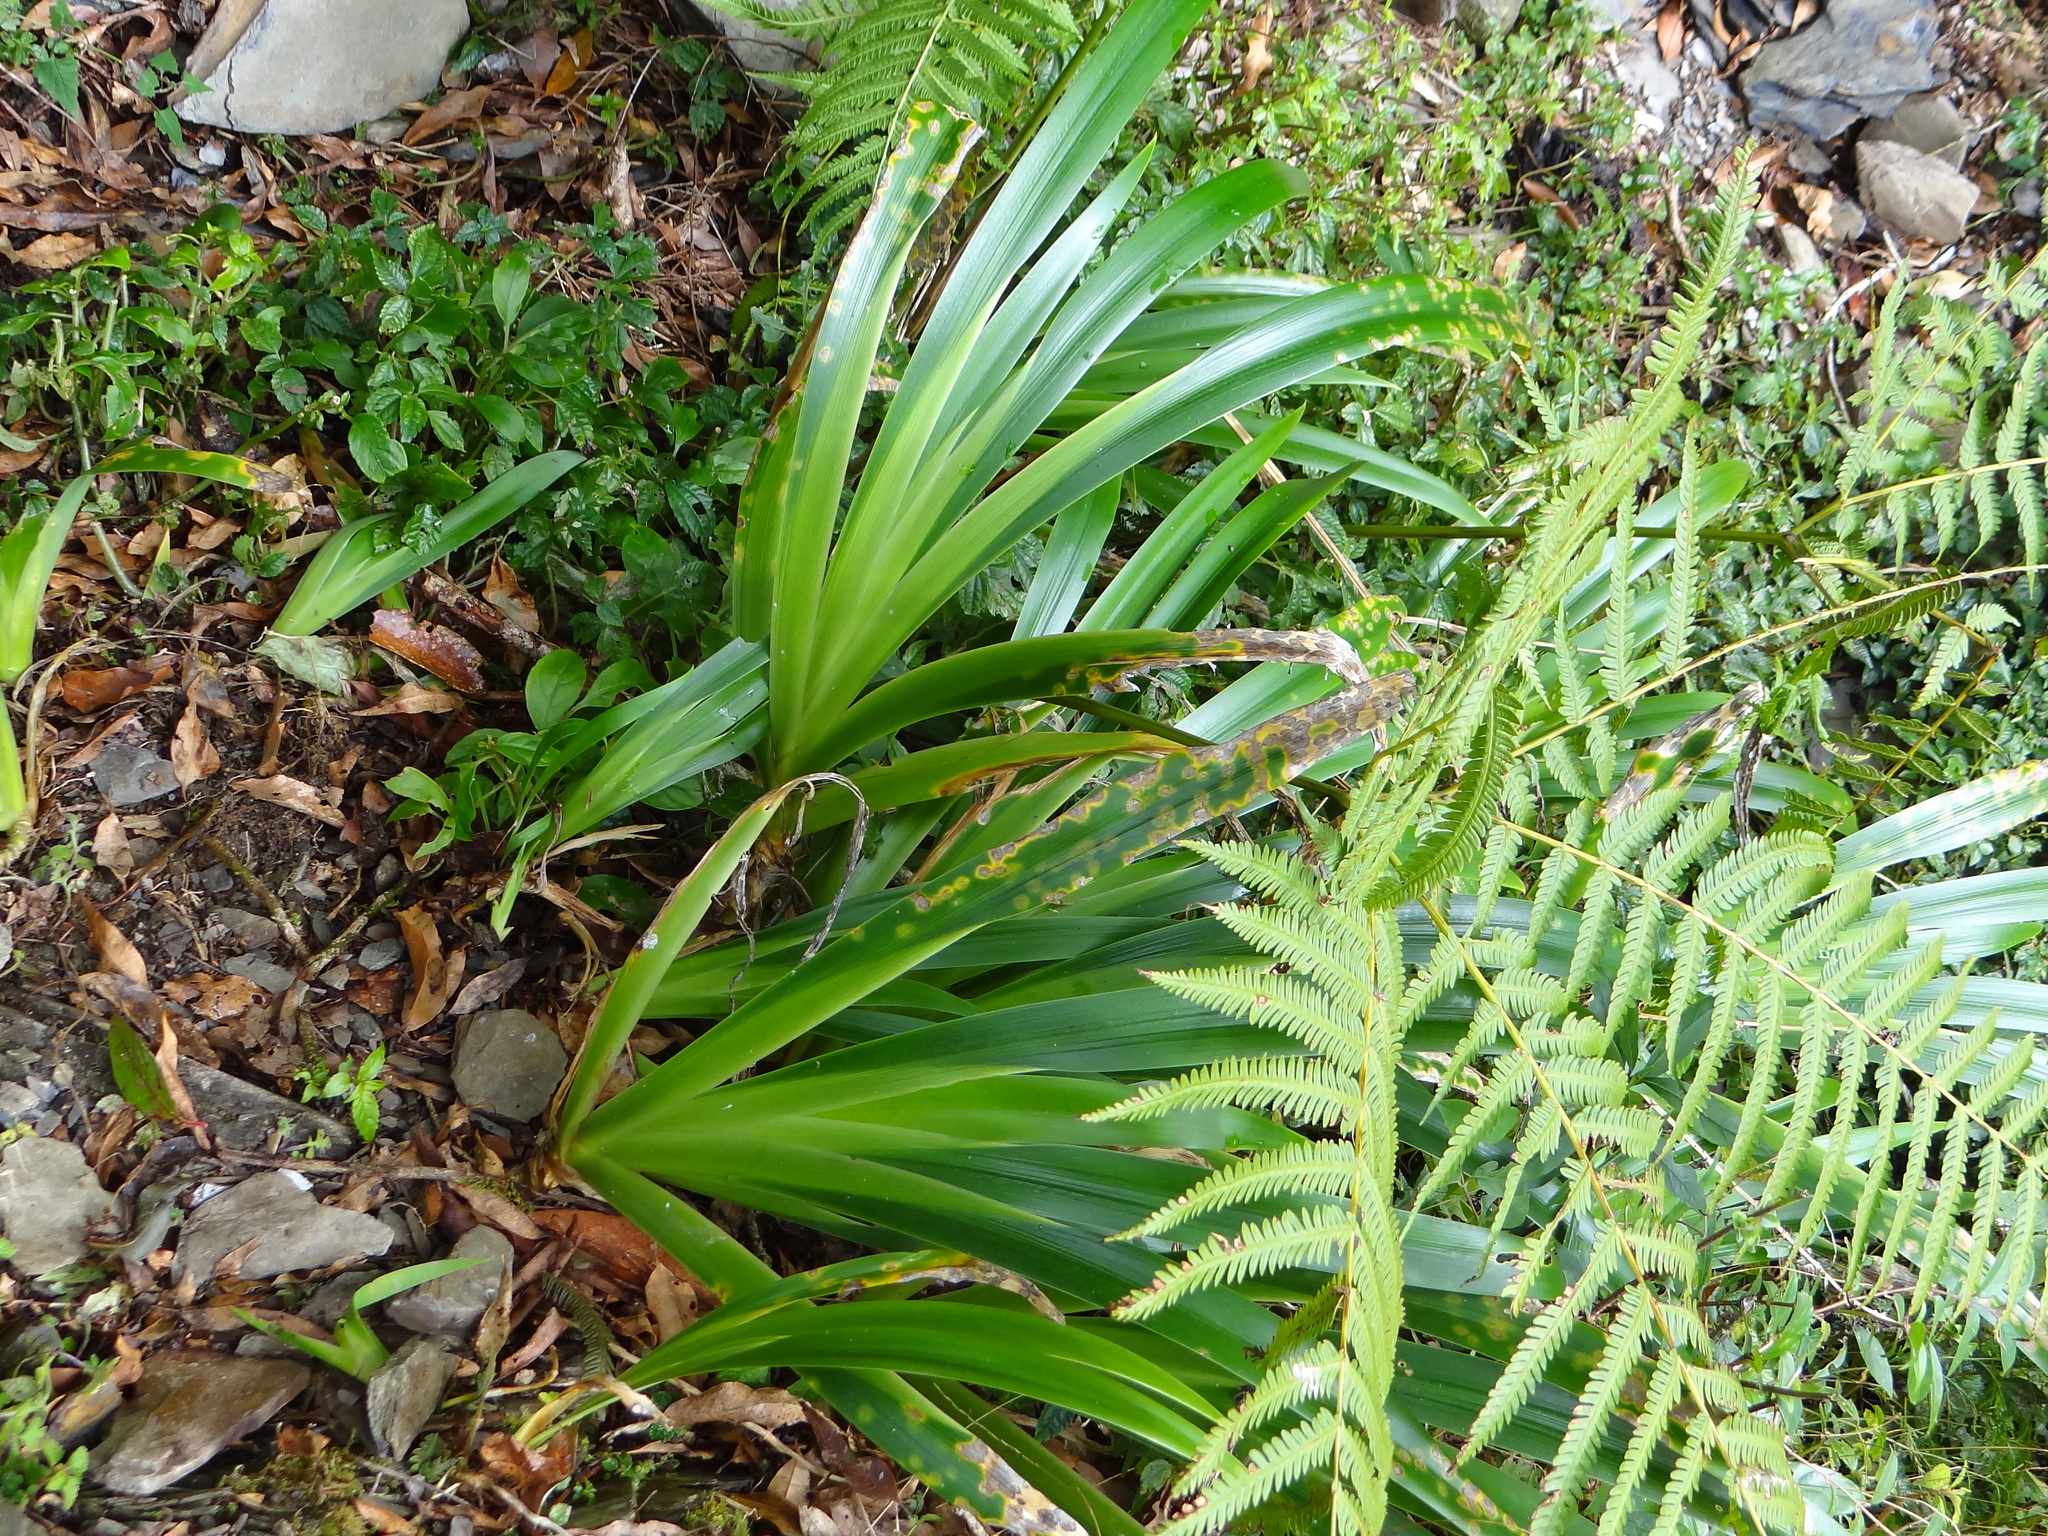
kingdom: Plantae
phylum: Tracheophyta
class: Liliopsida
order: Asparagales
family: Iridaceae
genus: Iris
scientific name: Iris formosana
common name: Taiwan iris
